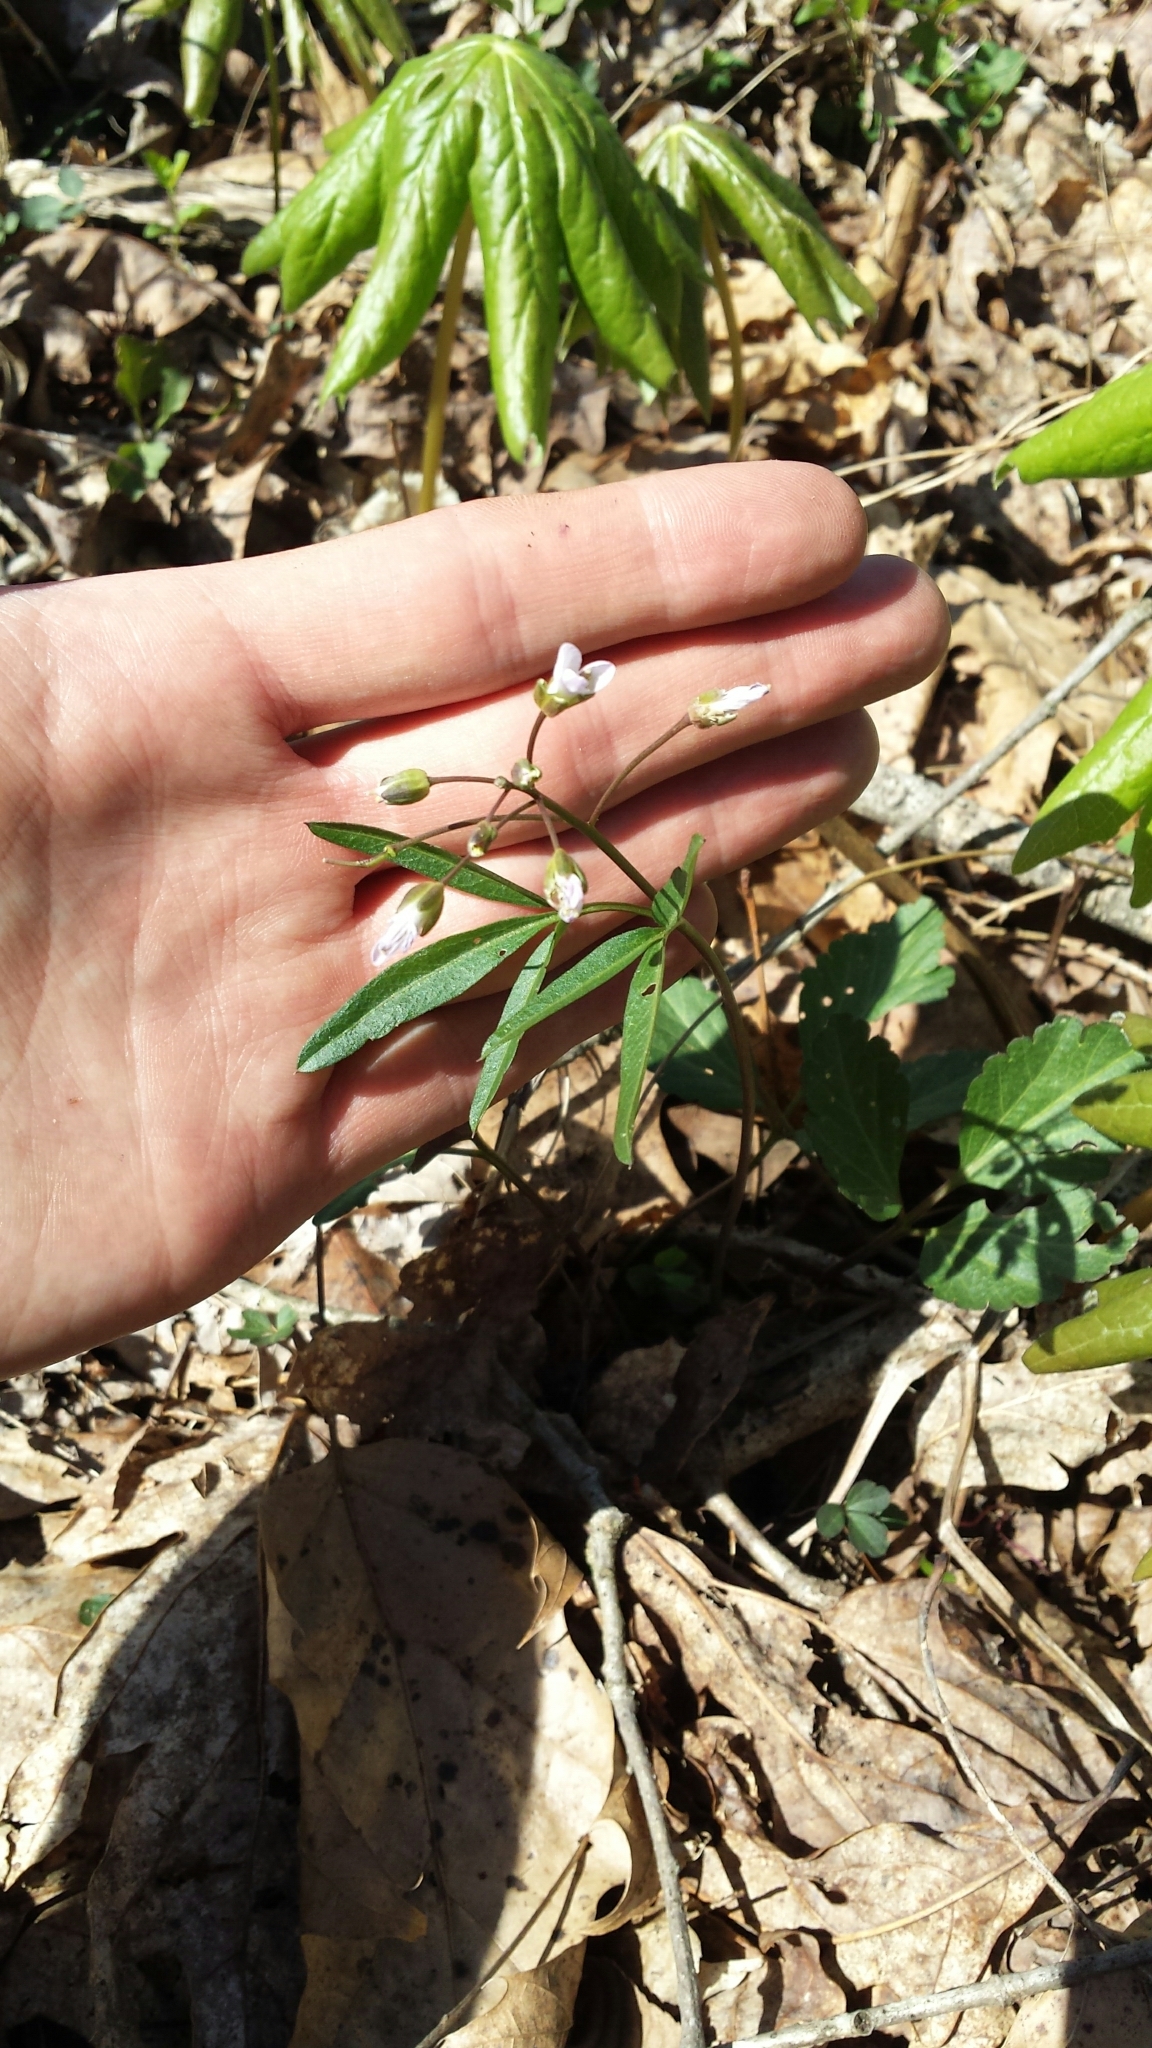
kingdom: Plantae
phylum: Tracheophyta
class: Magnoliopsida
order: Brassicales
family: Brassicaceae
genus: Cardamine
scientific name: Cardamine diphylla
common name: Broad-leaved toothwort
